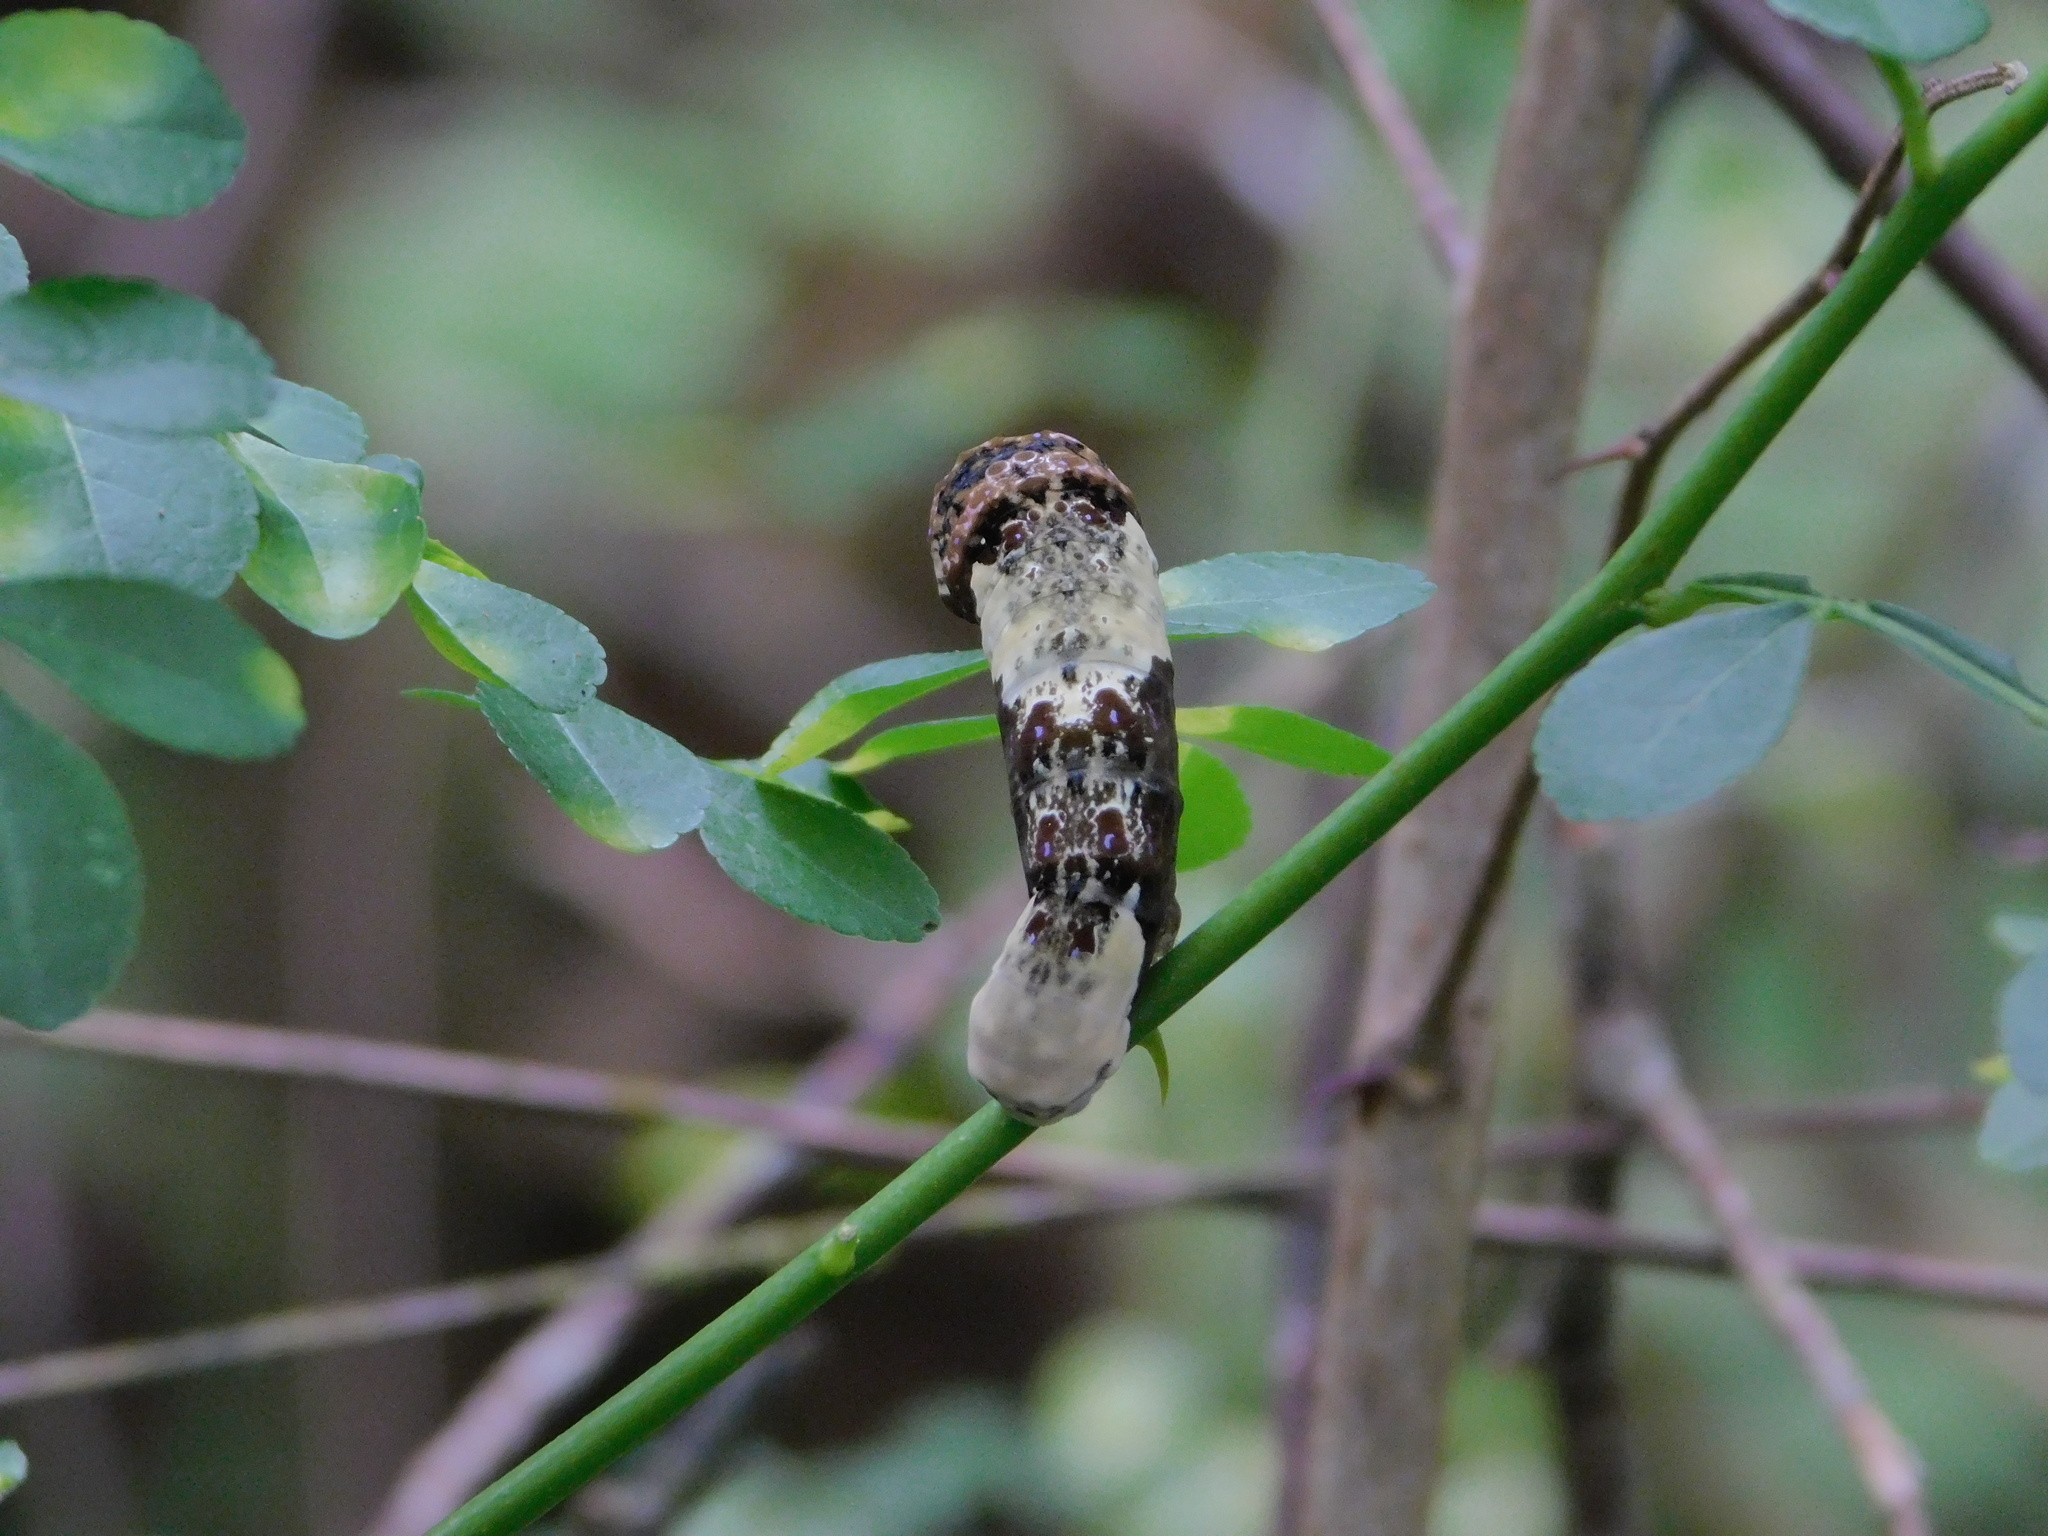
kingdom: Animalia
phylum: Arthropoda
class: Insecta
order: Lepidoptera
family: Papilionidae
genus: Papilio
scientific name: Papilio cresphontes
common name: Giant swallowtail
